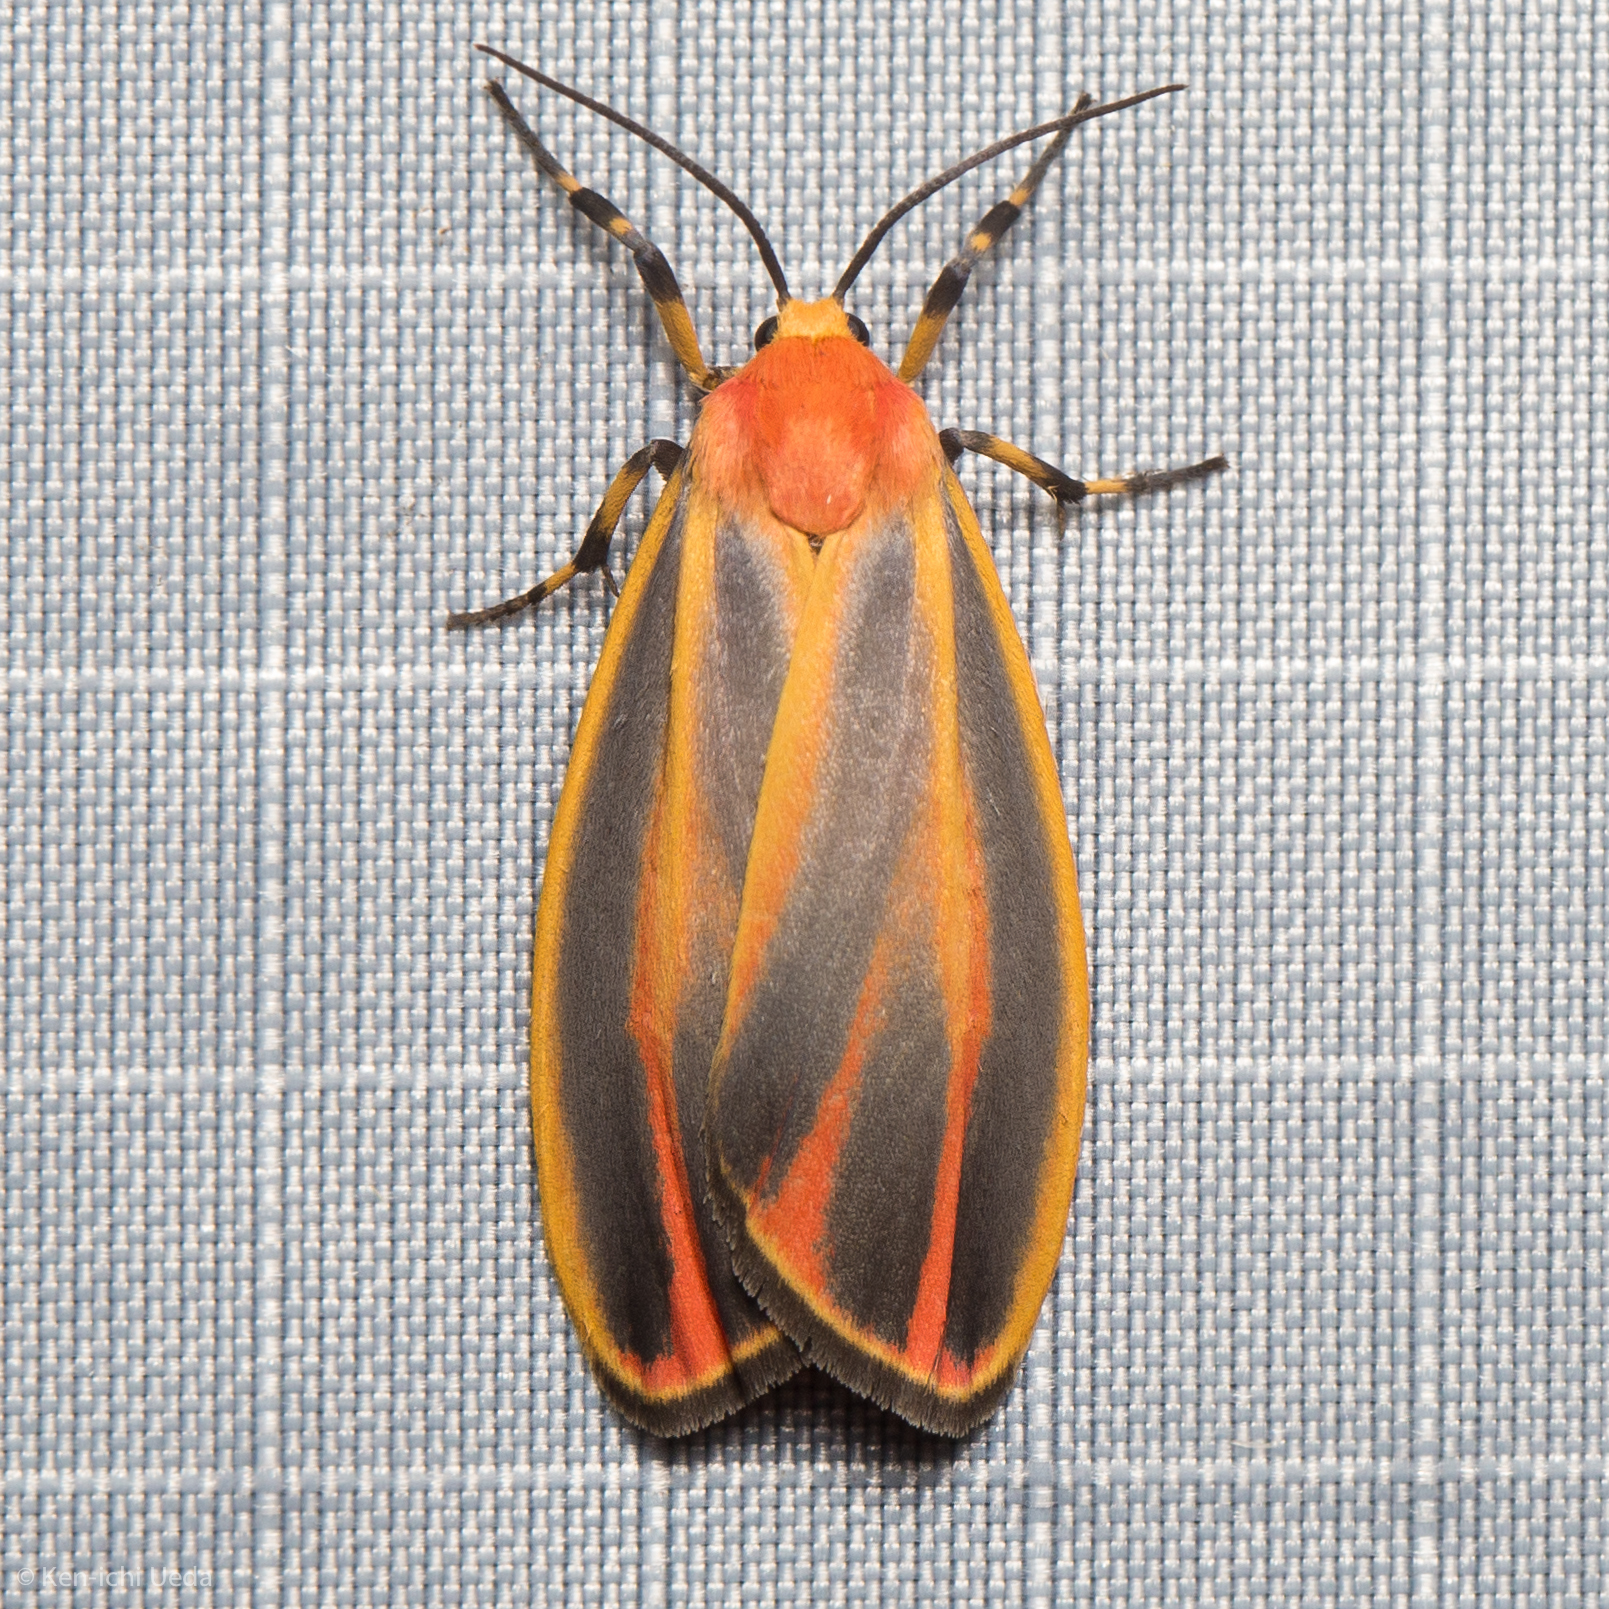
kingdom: Animalia
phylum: Arthropoda
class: Insecta
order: Lepidoptera
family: Erebidae
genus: Hypoprepia
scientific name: Hypoprepia fucosa
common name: Painted lichen moth
